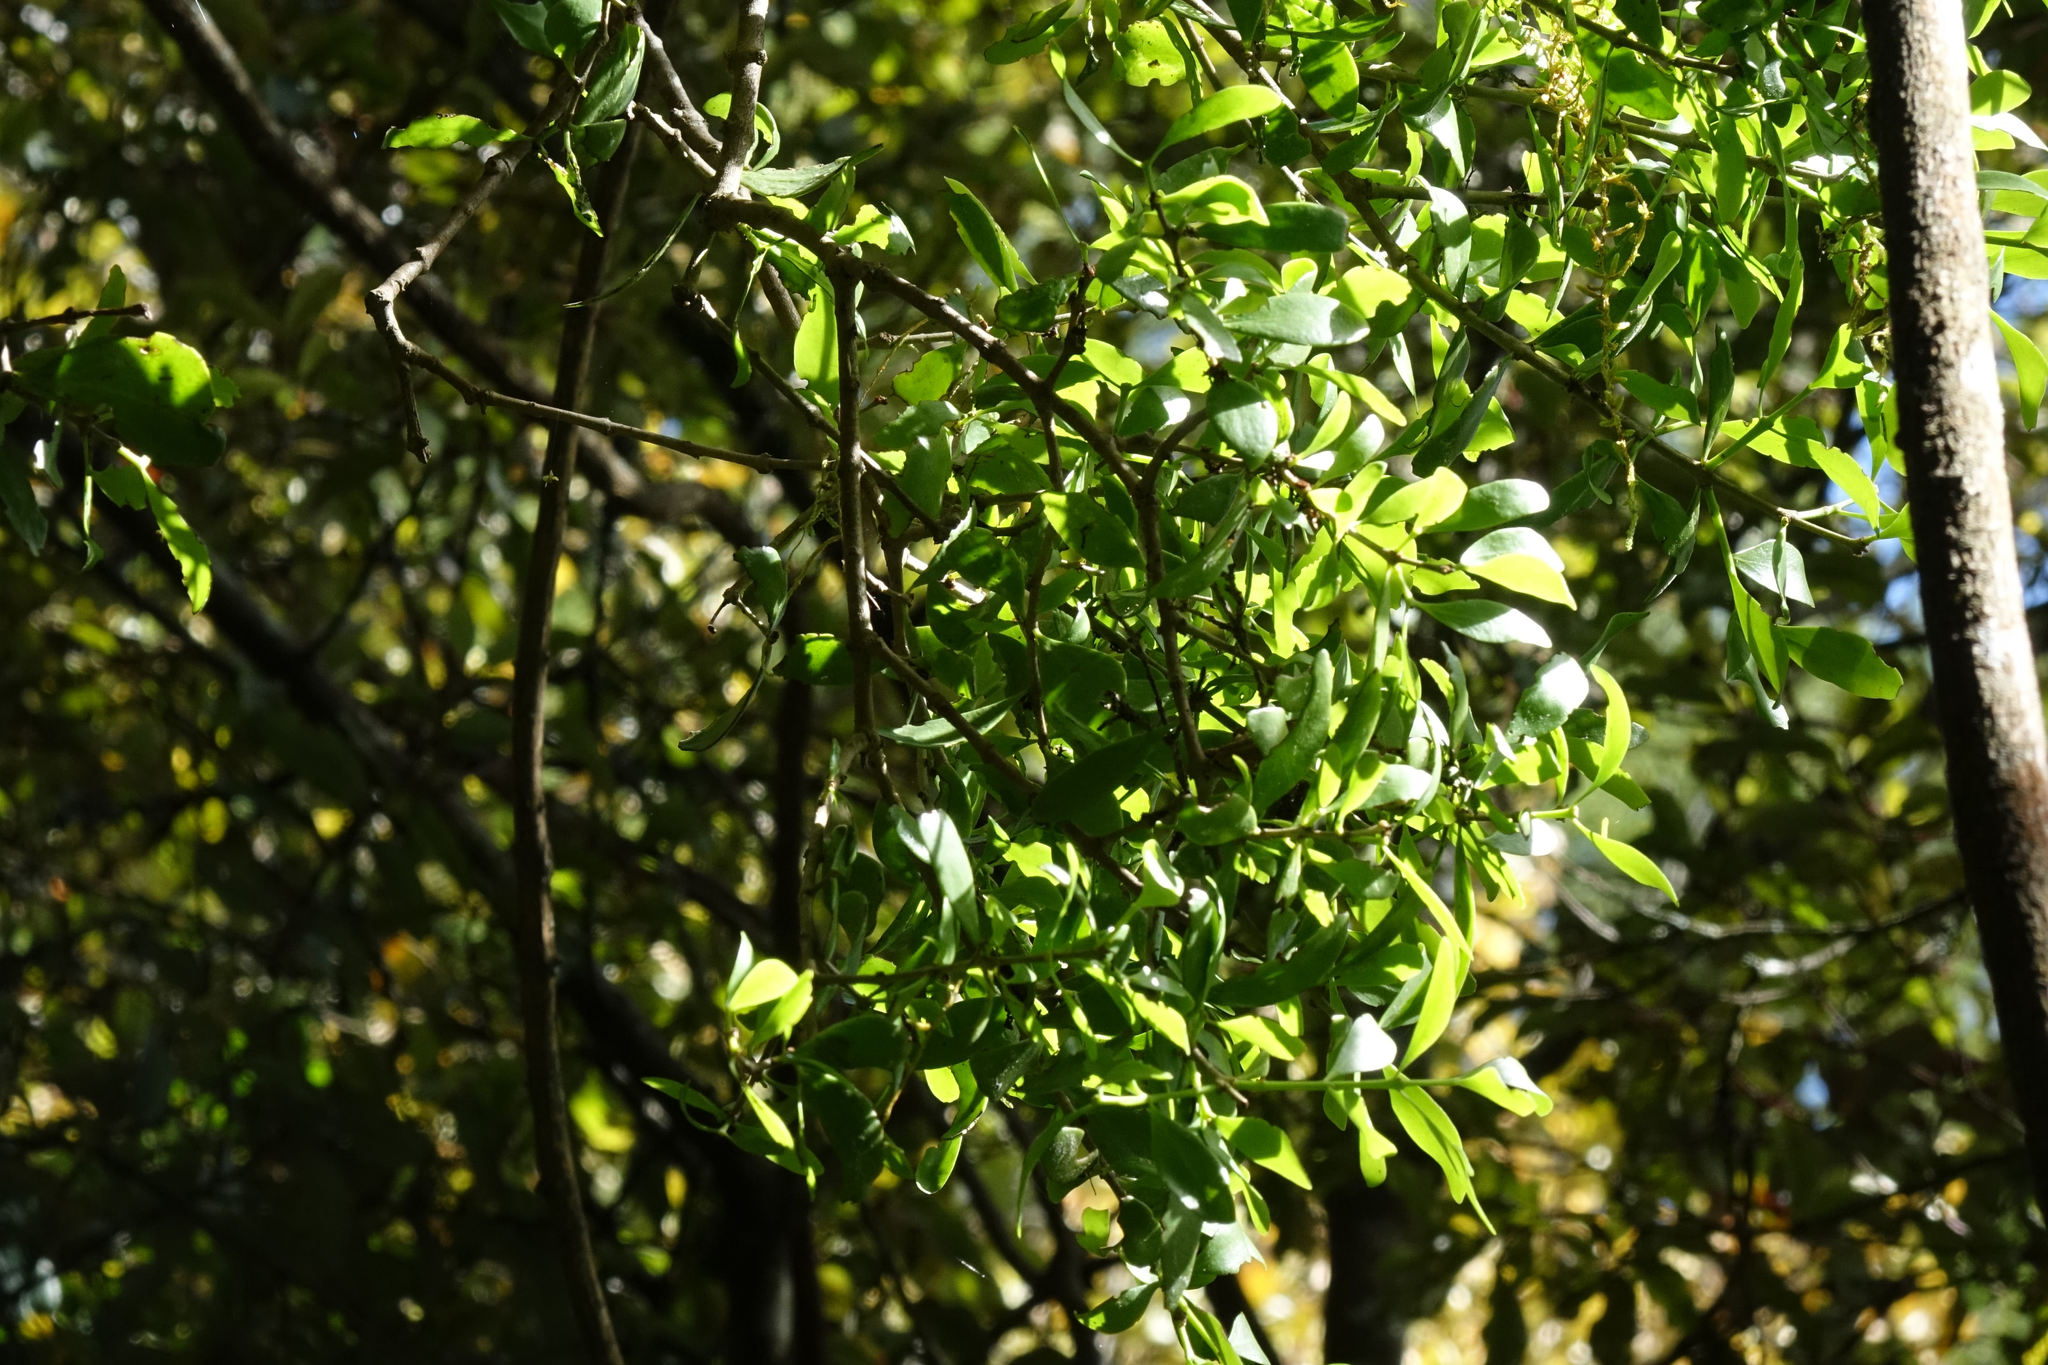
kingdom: Plantae
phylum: Tracheophyta
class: Magnoliopsida
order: Santalales
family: Loranthaceae
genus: Tupeia
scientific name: Tupeia antarctica
